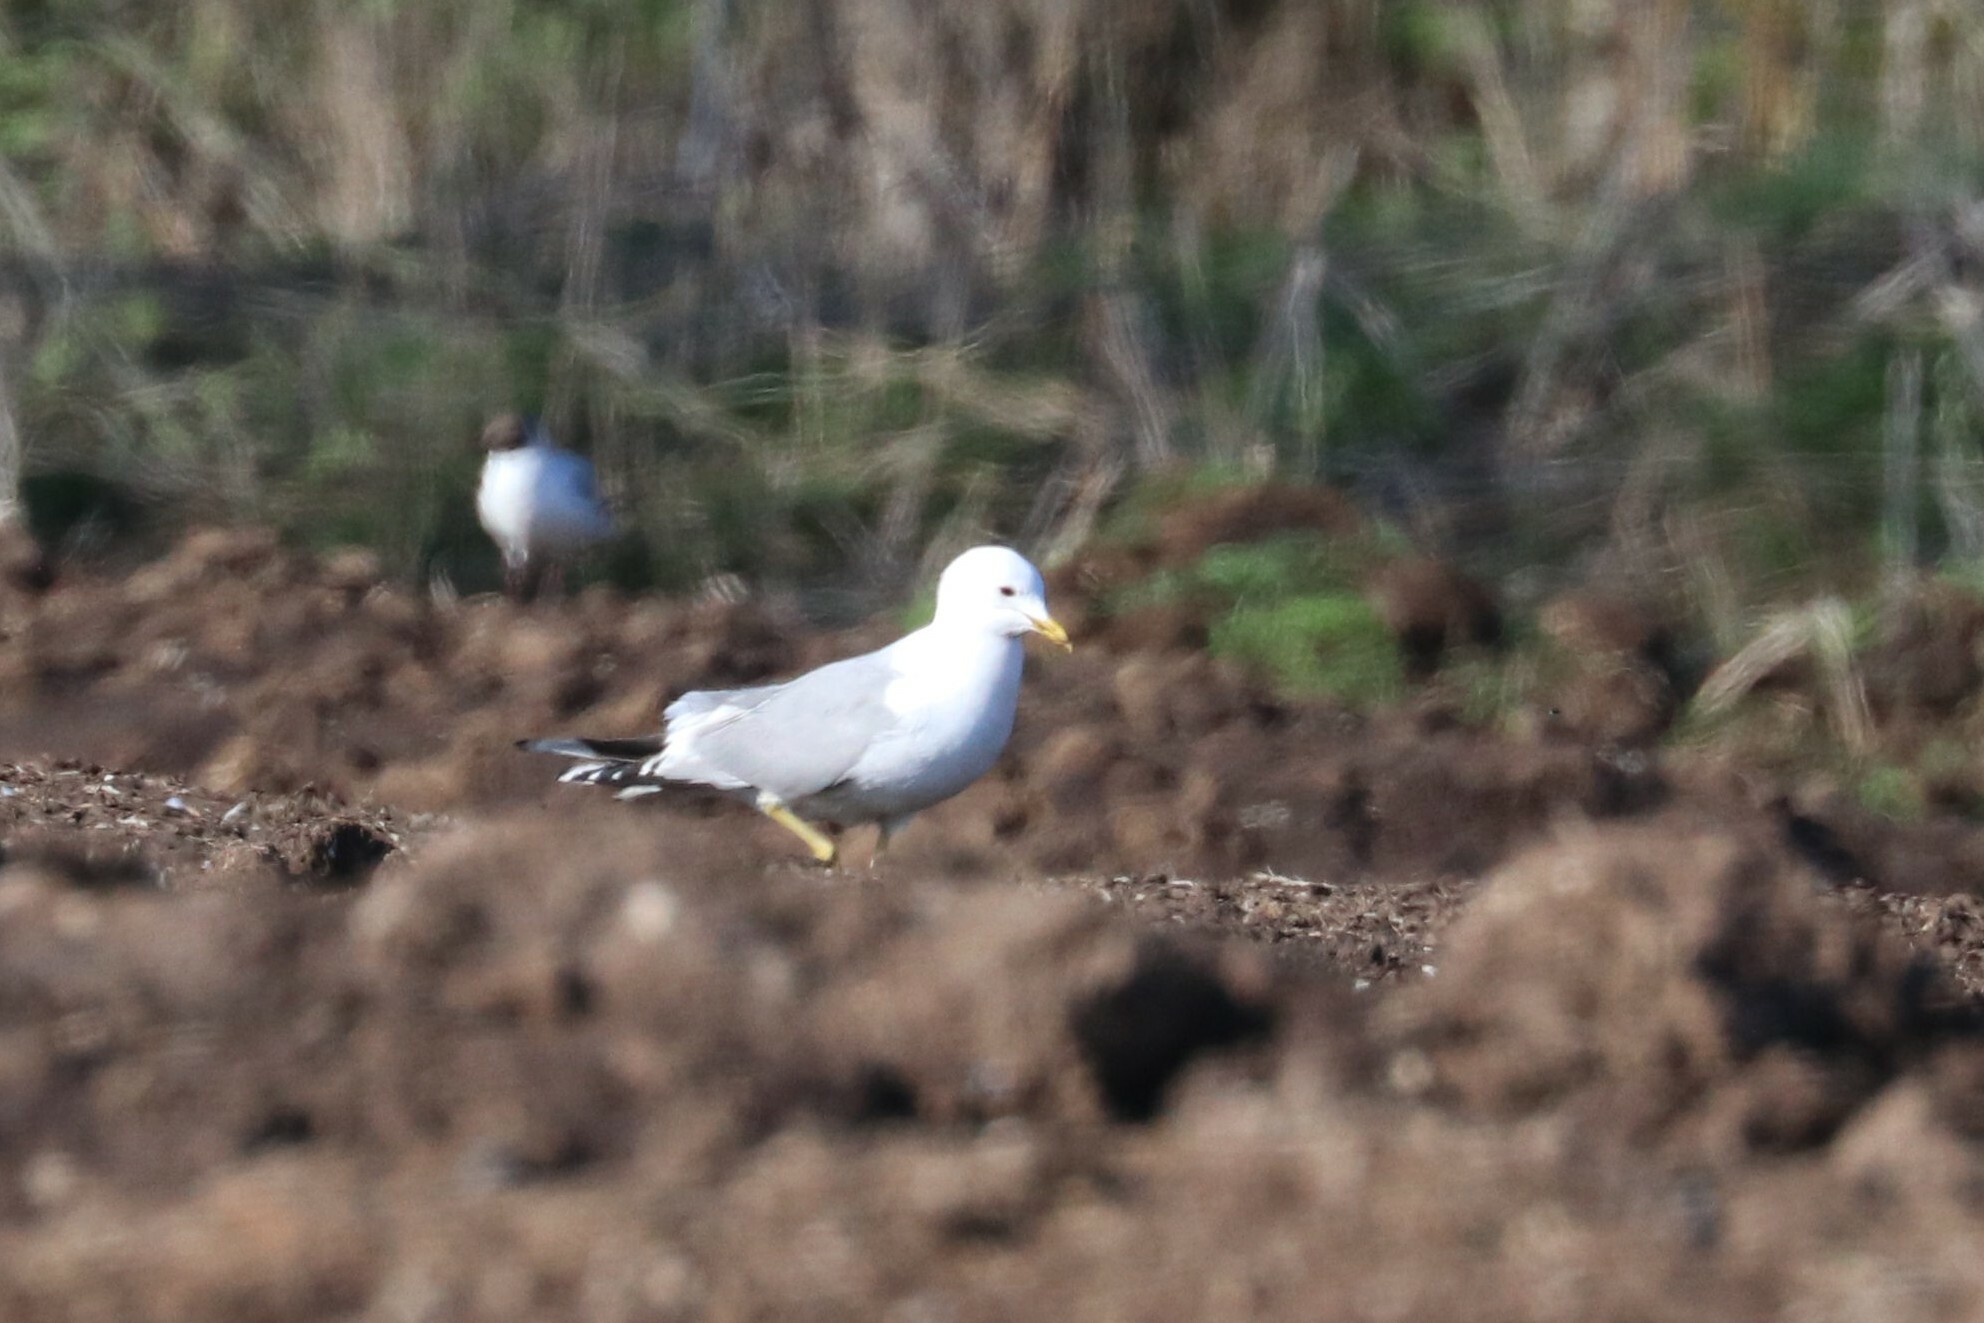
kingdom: Animalia
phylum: Chordata
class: Aves
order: Charadriiformes
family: Laridae
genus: Larus
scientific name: Larus canus
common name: Mew gull
